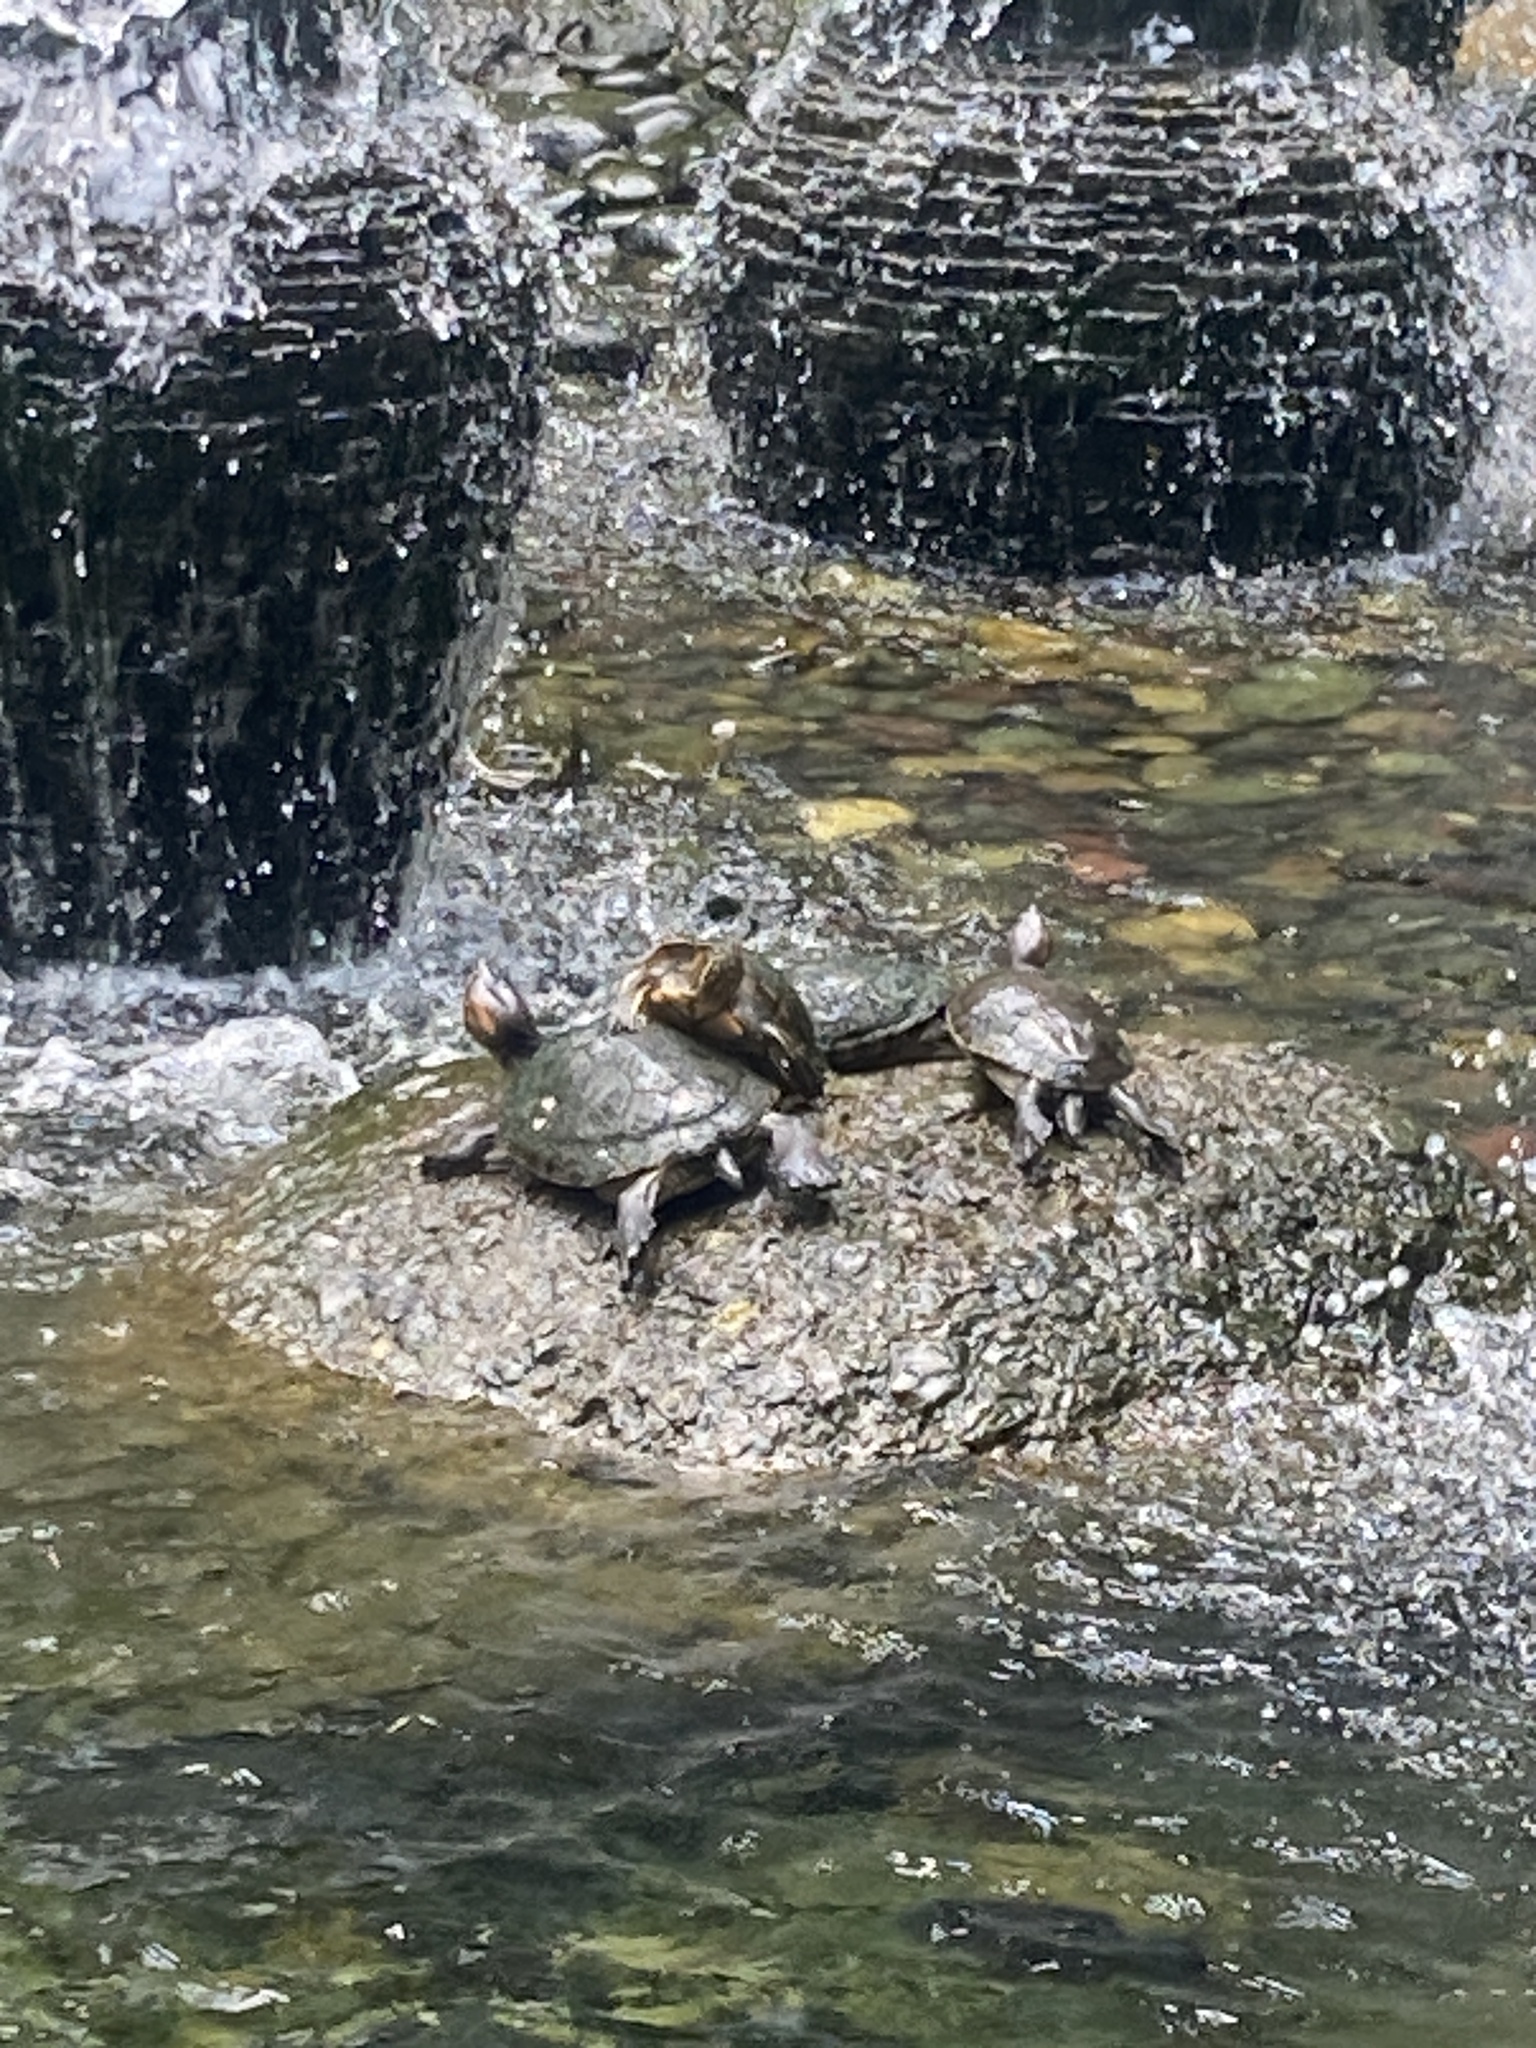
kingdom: Animalia
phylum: Chordata
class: Testudines
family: Emydidae
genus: Trachemys
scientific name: Trachemys callirostris
